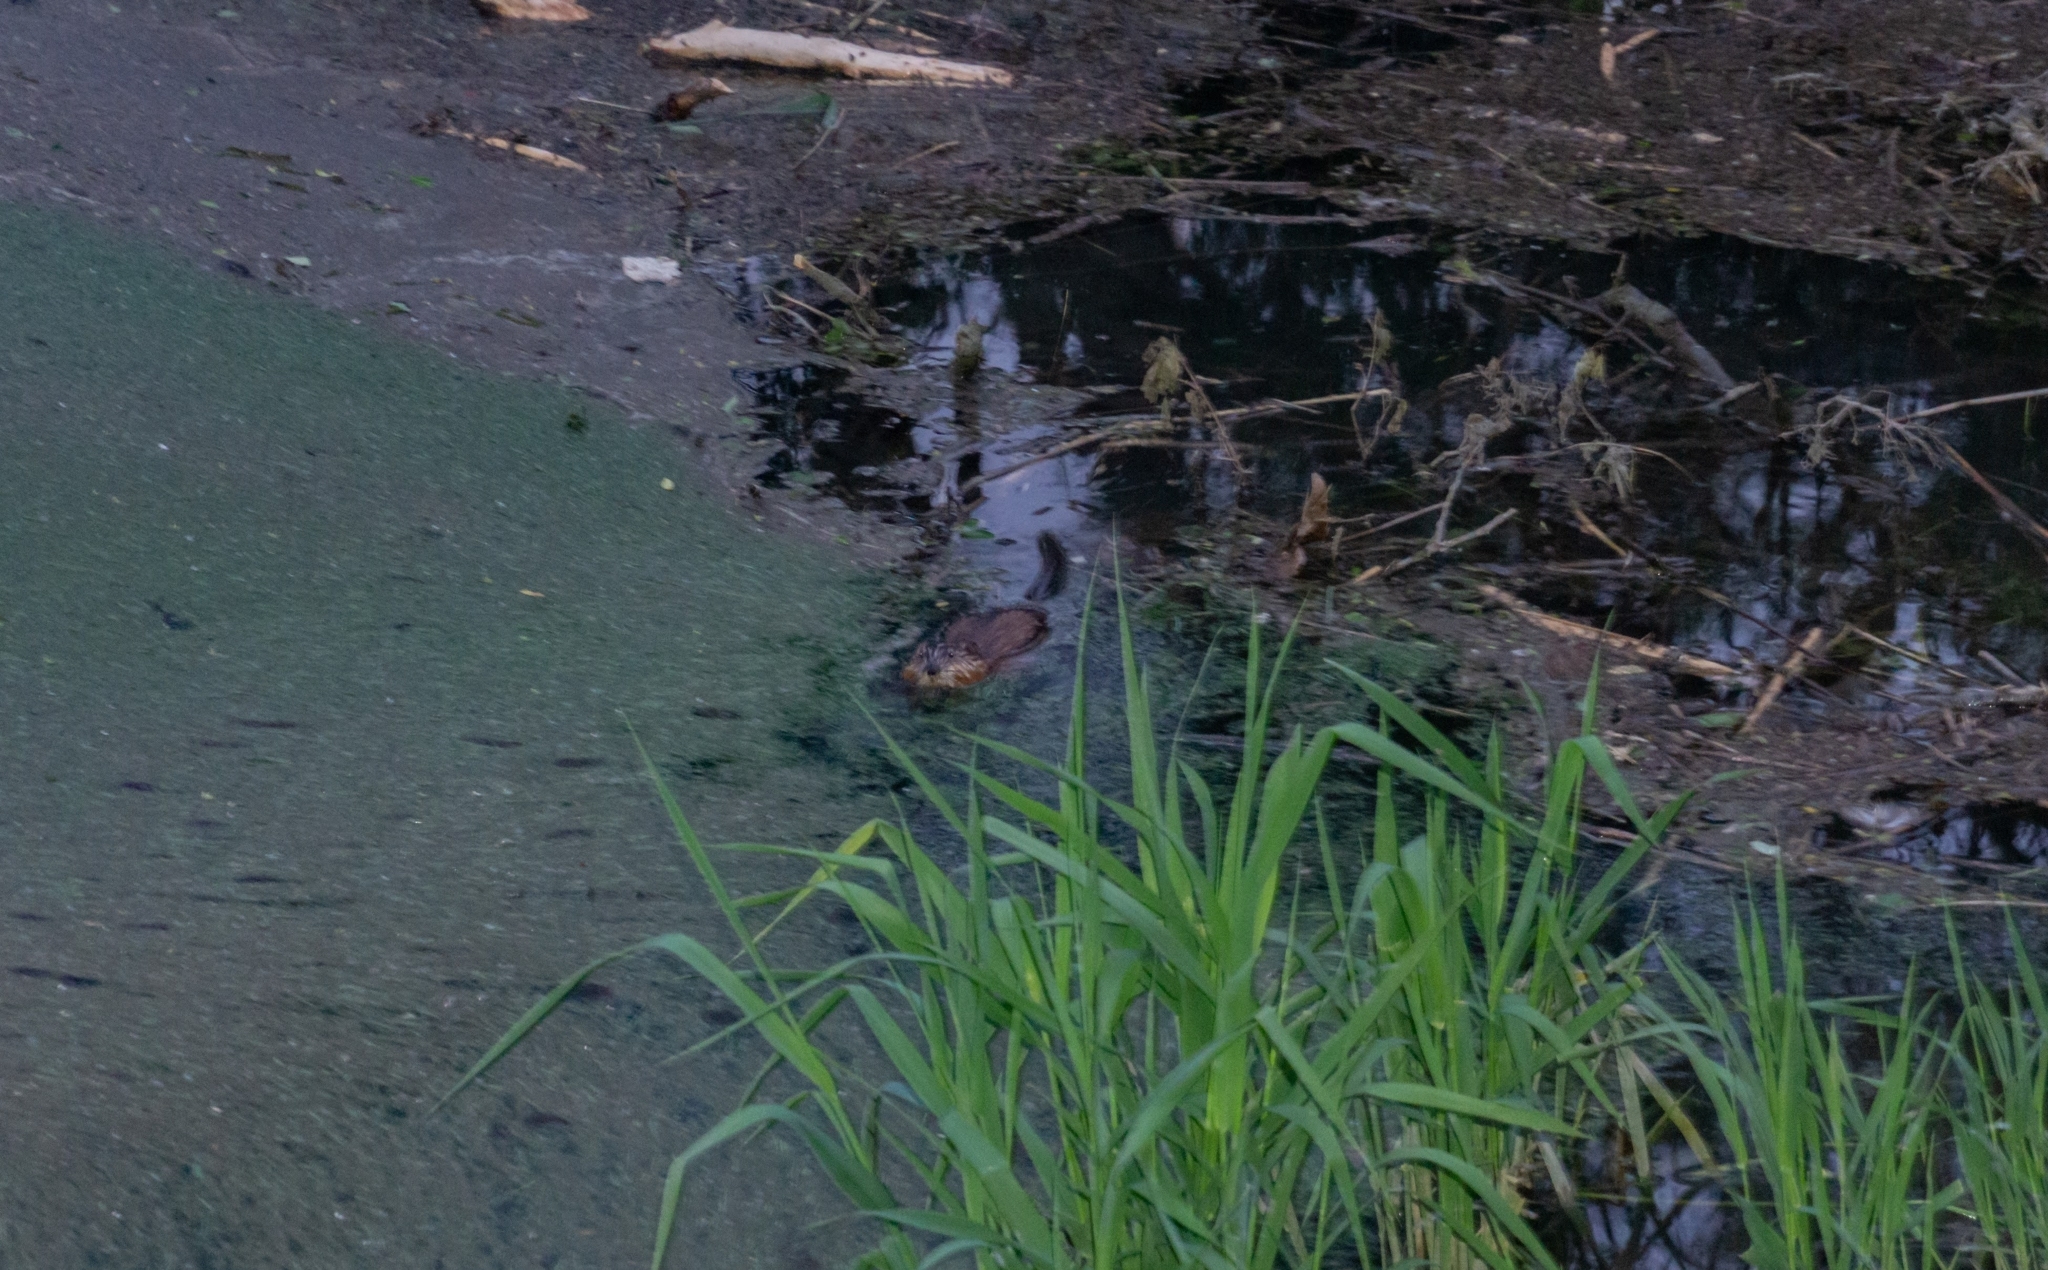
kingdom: Animalia
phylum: Chordata
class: Mammalia
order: Rodentia
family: Cricetidae
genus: Ondatra
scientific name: Ondatra zibethicus
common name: Muskrat
